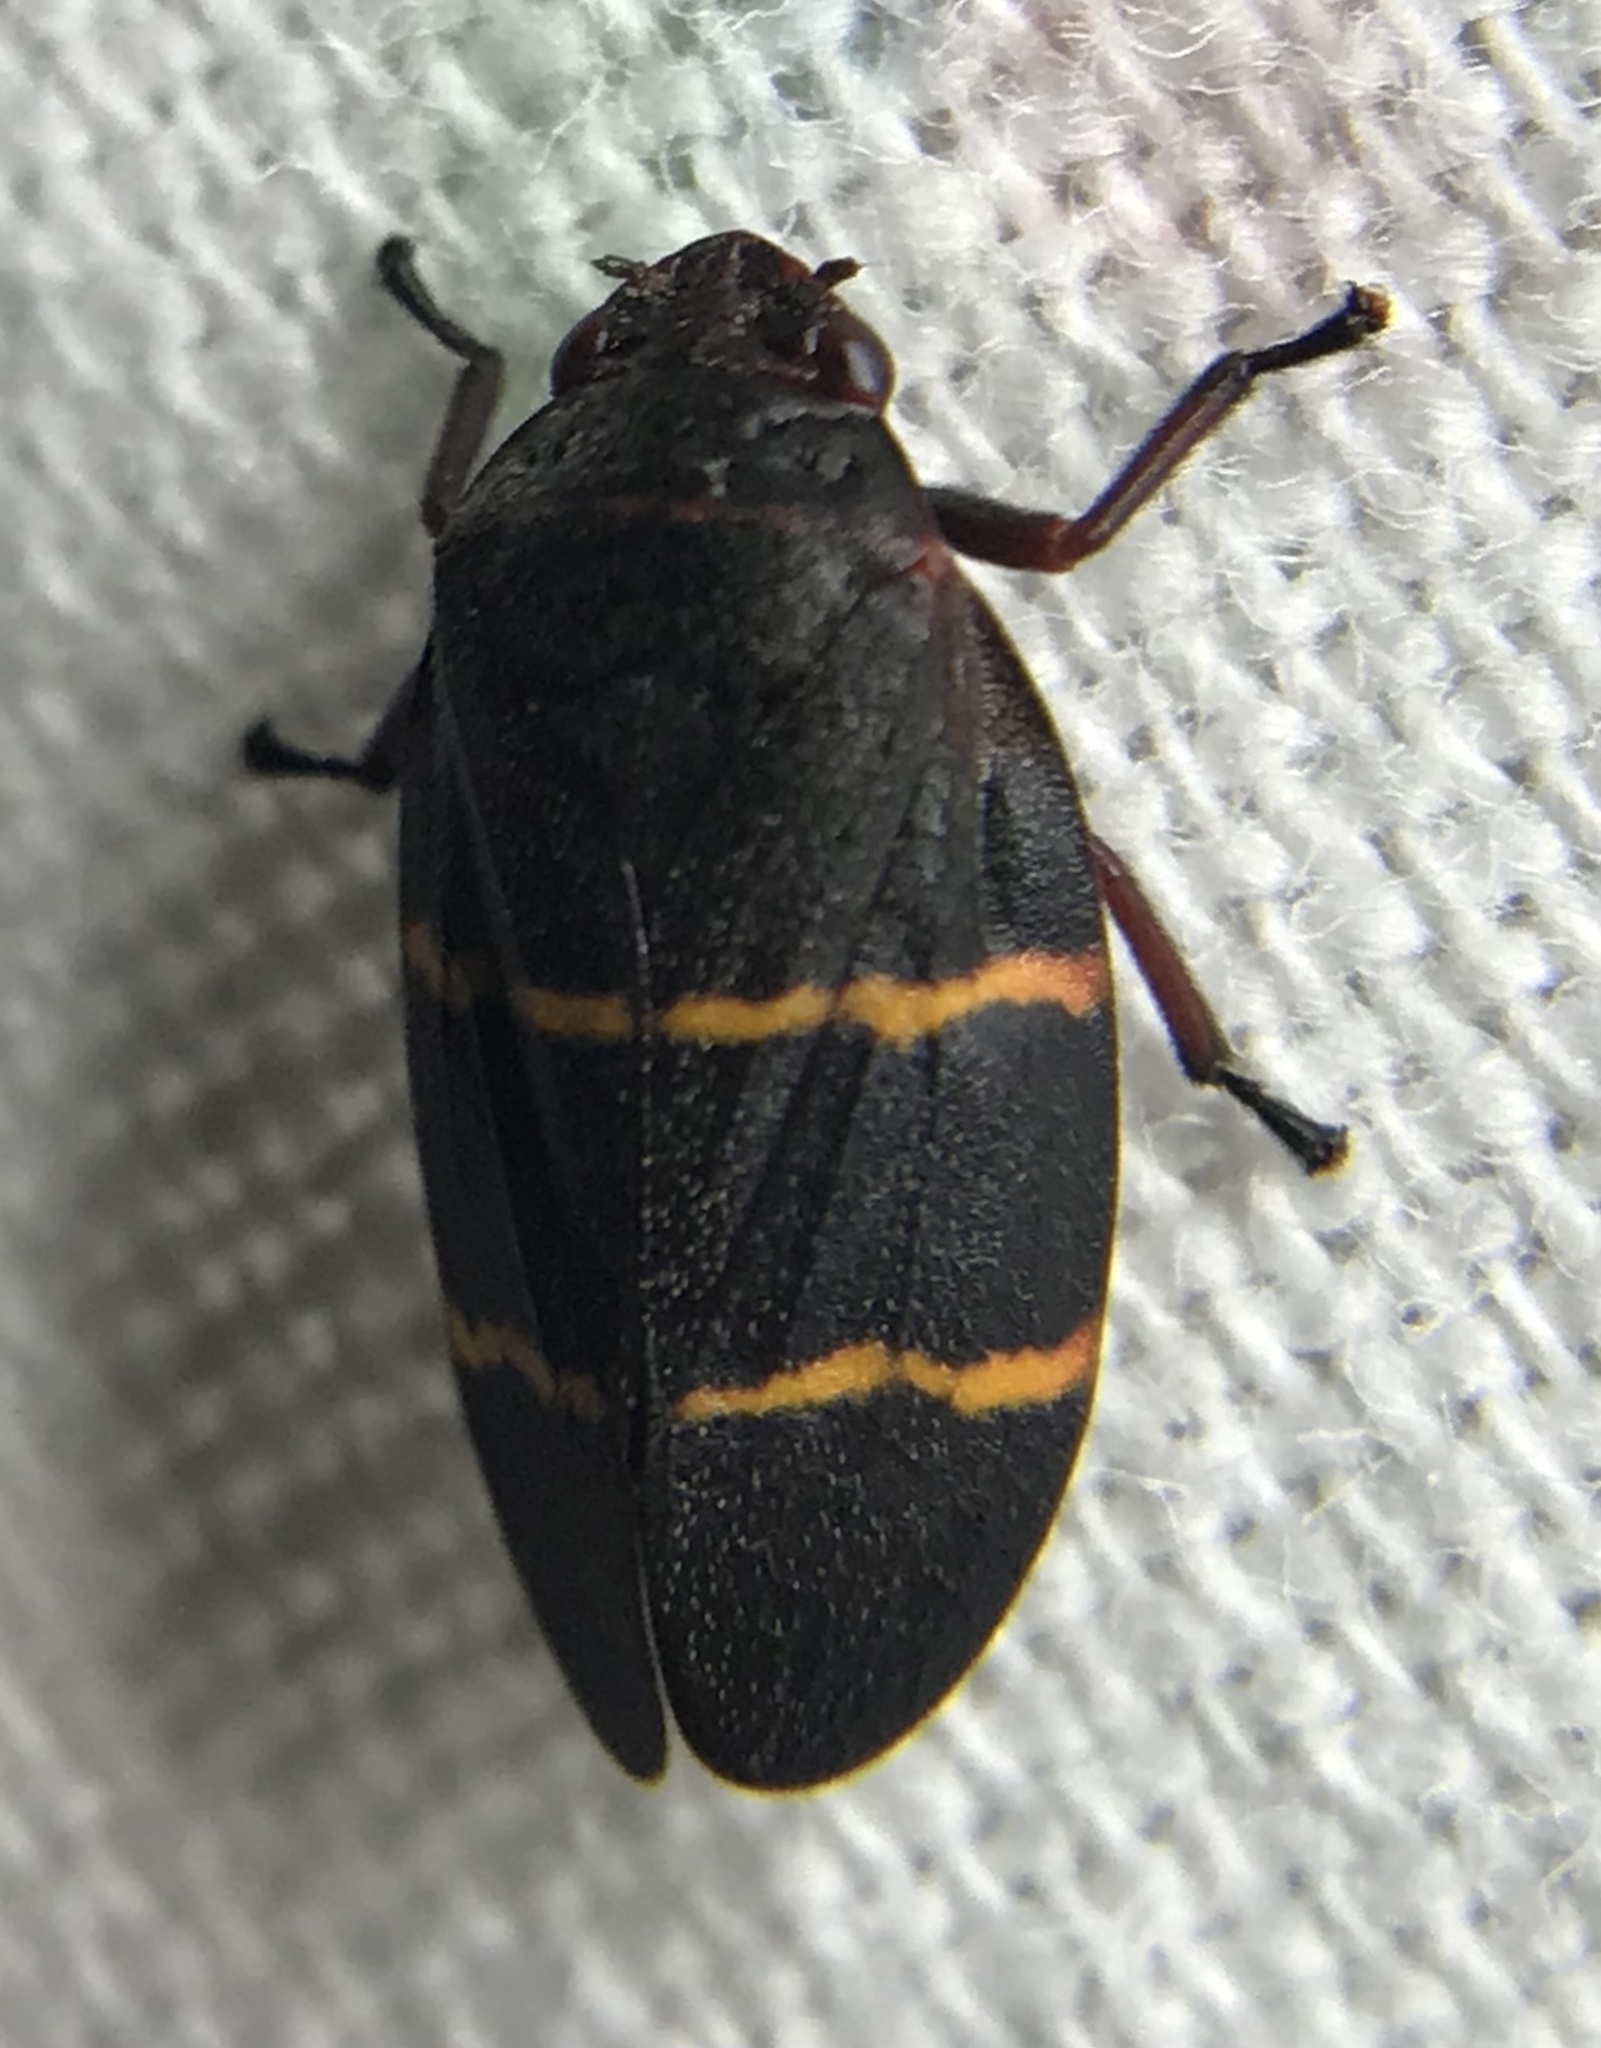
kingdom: Animalia
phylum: Arthropoda
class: Insecta
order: Hemiptera
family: Cercopidae
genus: Prosapia
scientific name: Prosapia bicincta
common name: Twolined spittlebug
